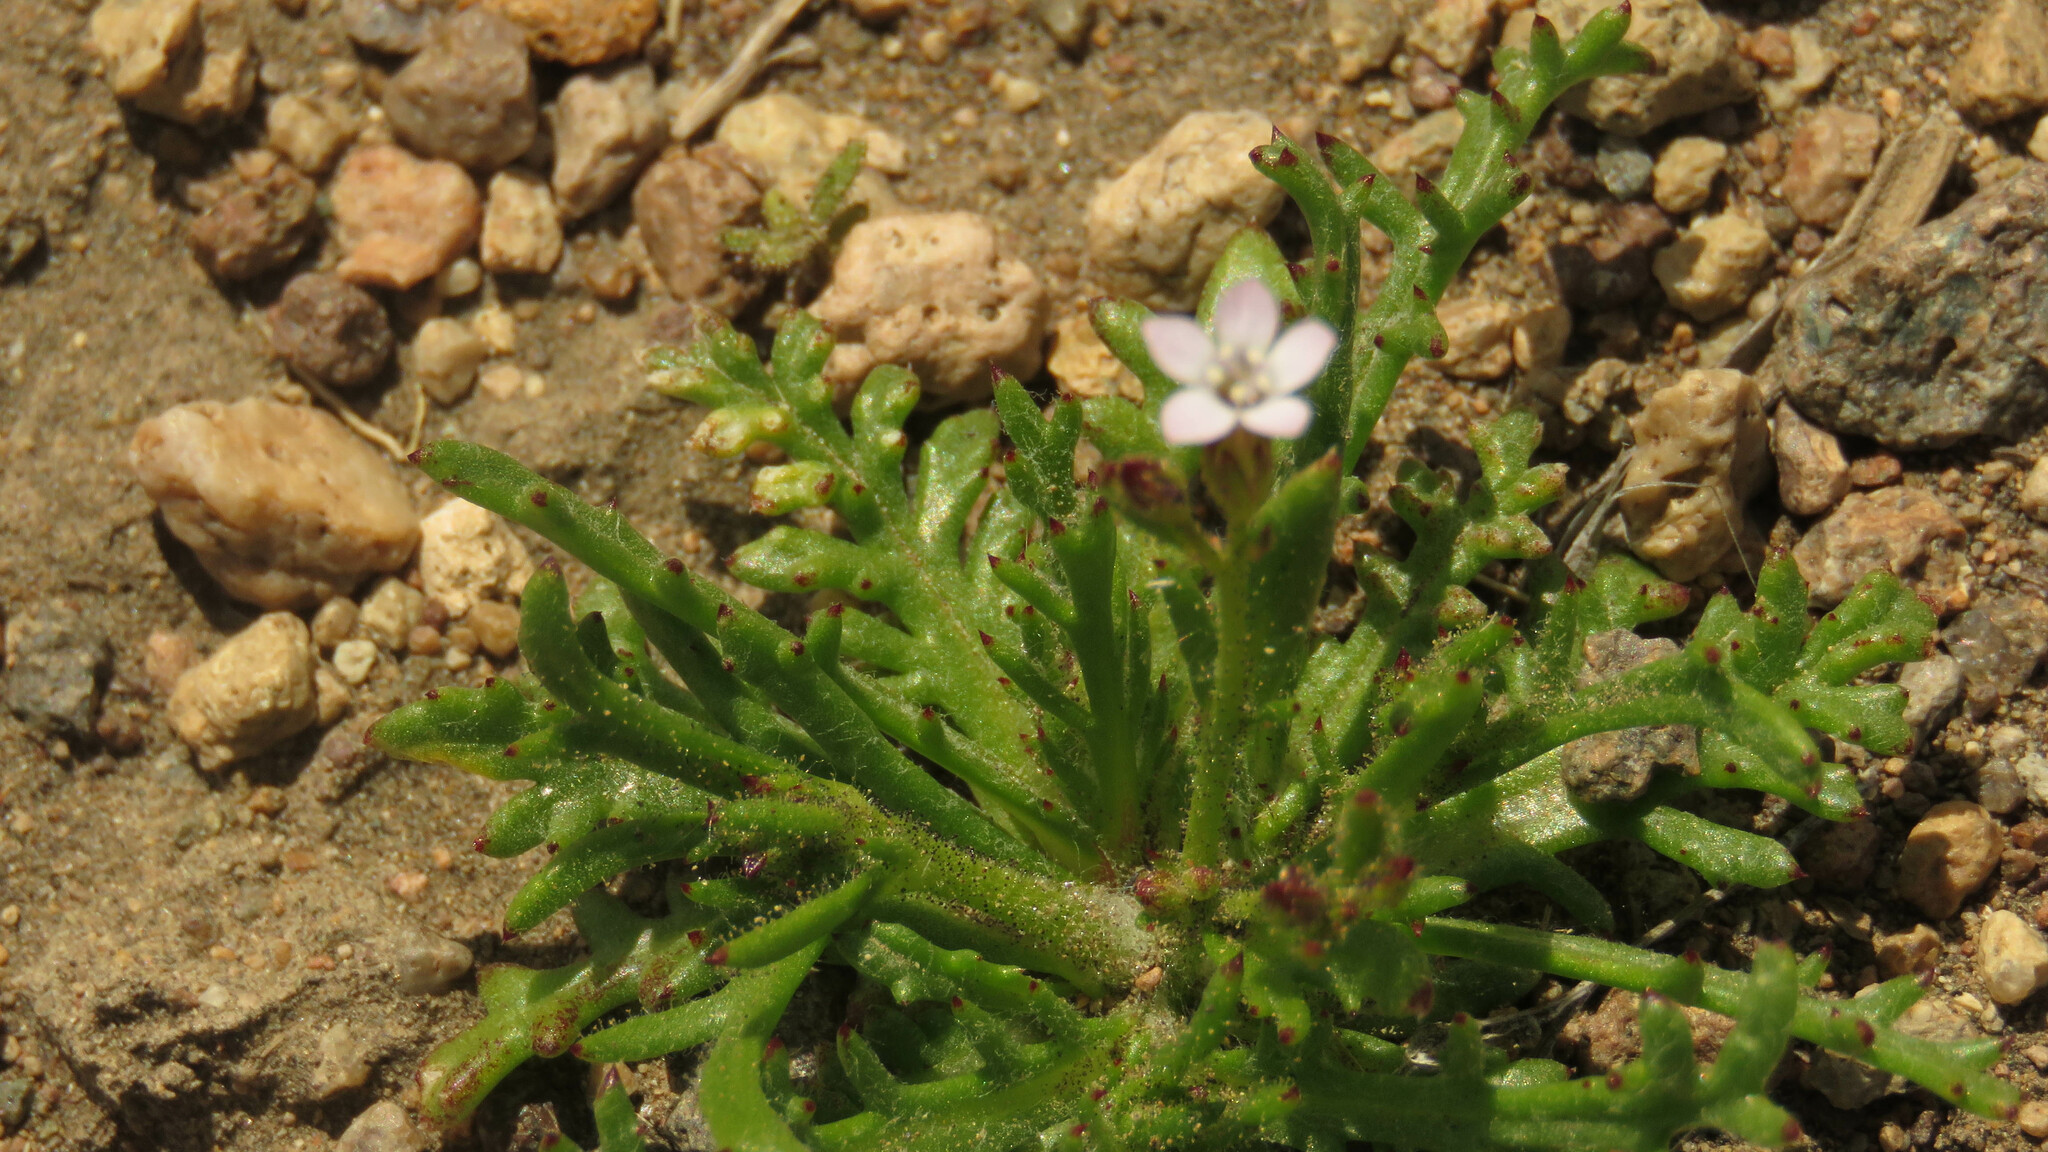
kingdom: Plantae
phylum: Tracheophyta
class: Magnoliopsida
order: Ericales
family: Polemoniaceae
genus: Gilia
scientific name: Gilia crassifolia
